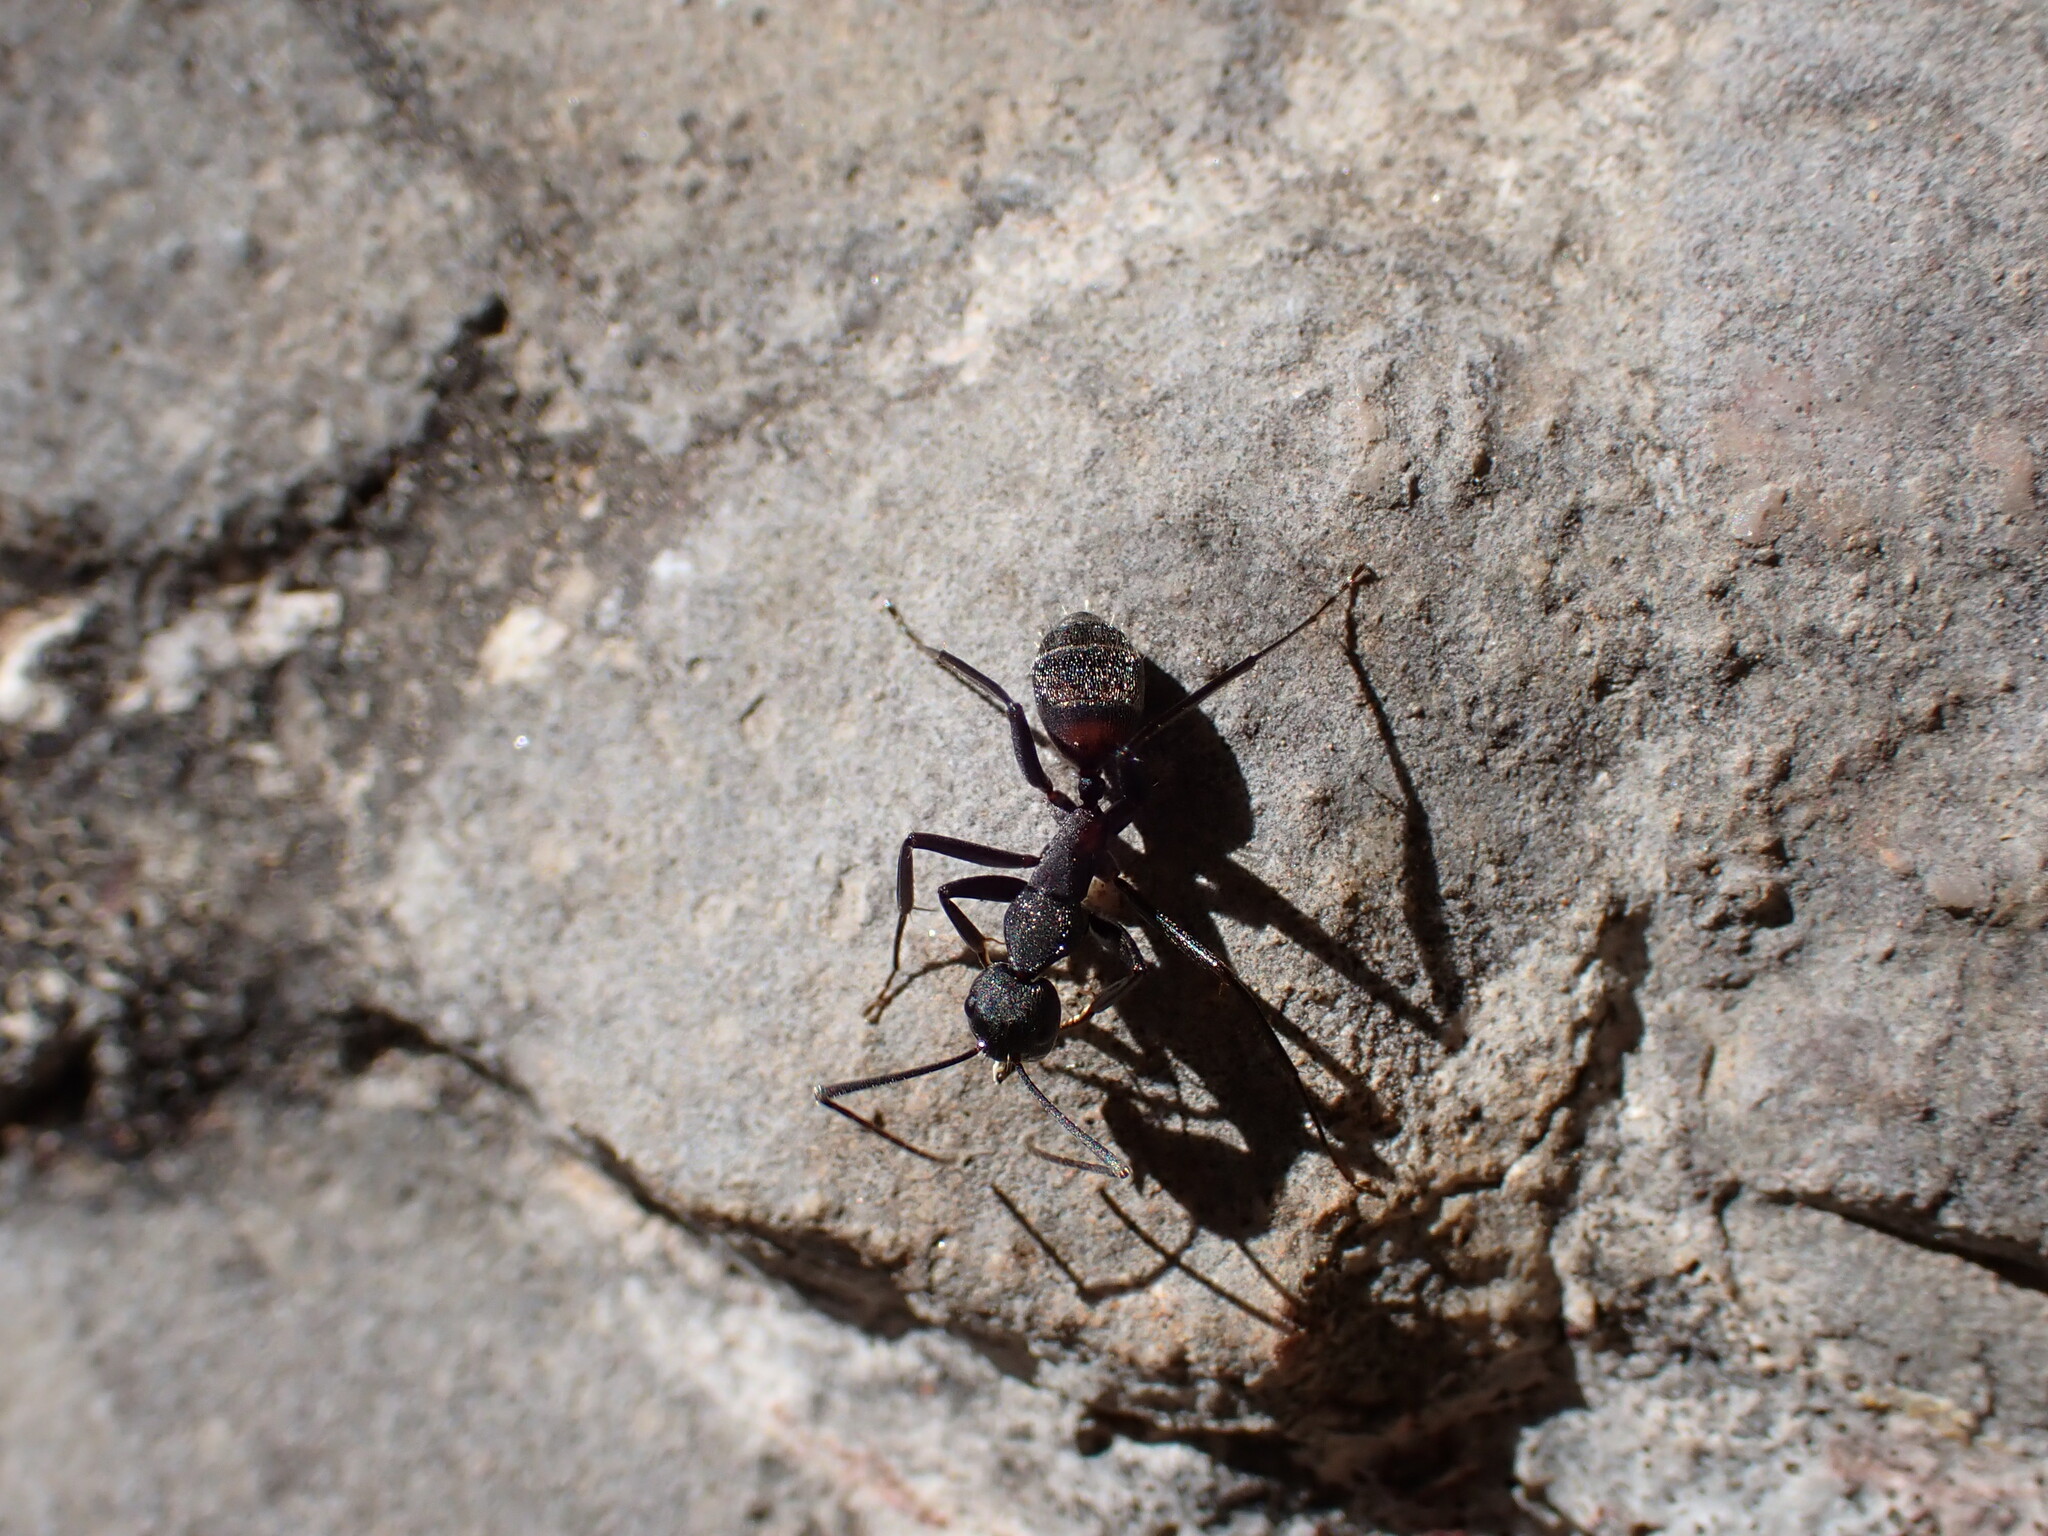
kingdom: Animalia
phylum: Arthropoda
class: Insecta
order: Hymenoptera
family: Formicidae
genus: Camponotus
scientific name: Camponotus cruentatus
